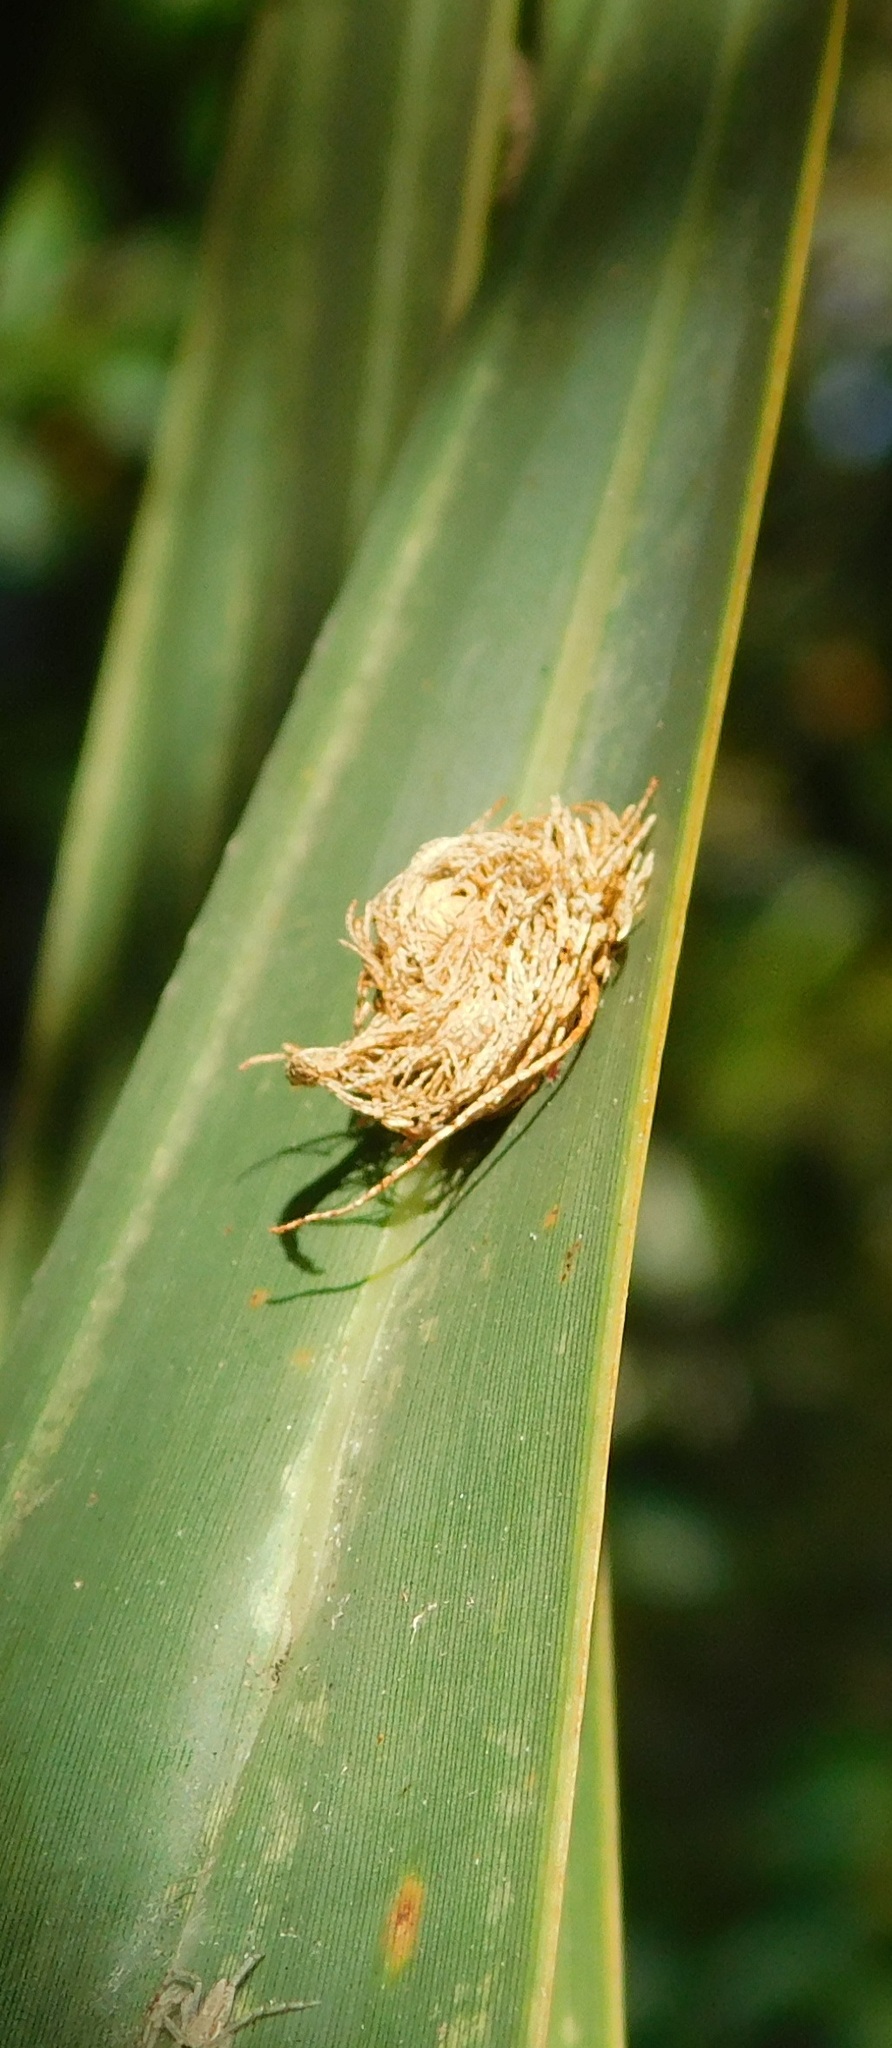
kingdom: Animalia
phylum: Arthropoda
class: Insecta
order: Coleoptera
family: Chrysomelidae
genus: Hemisphaerota
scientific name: Hemisphaerota cyanea
